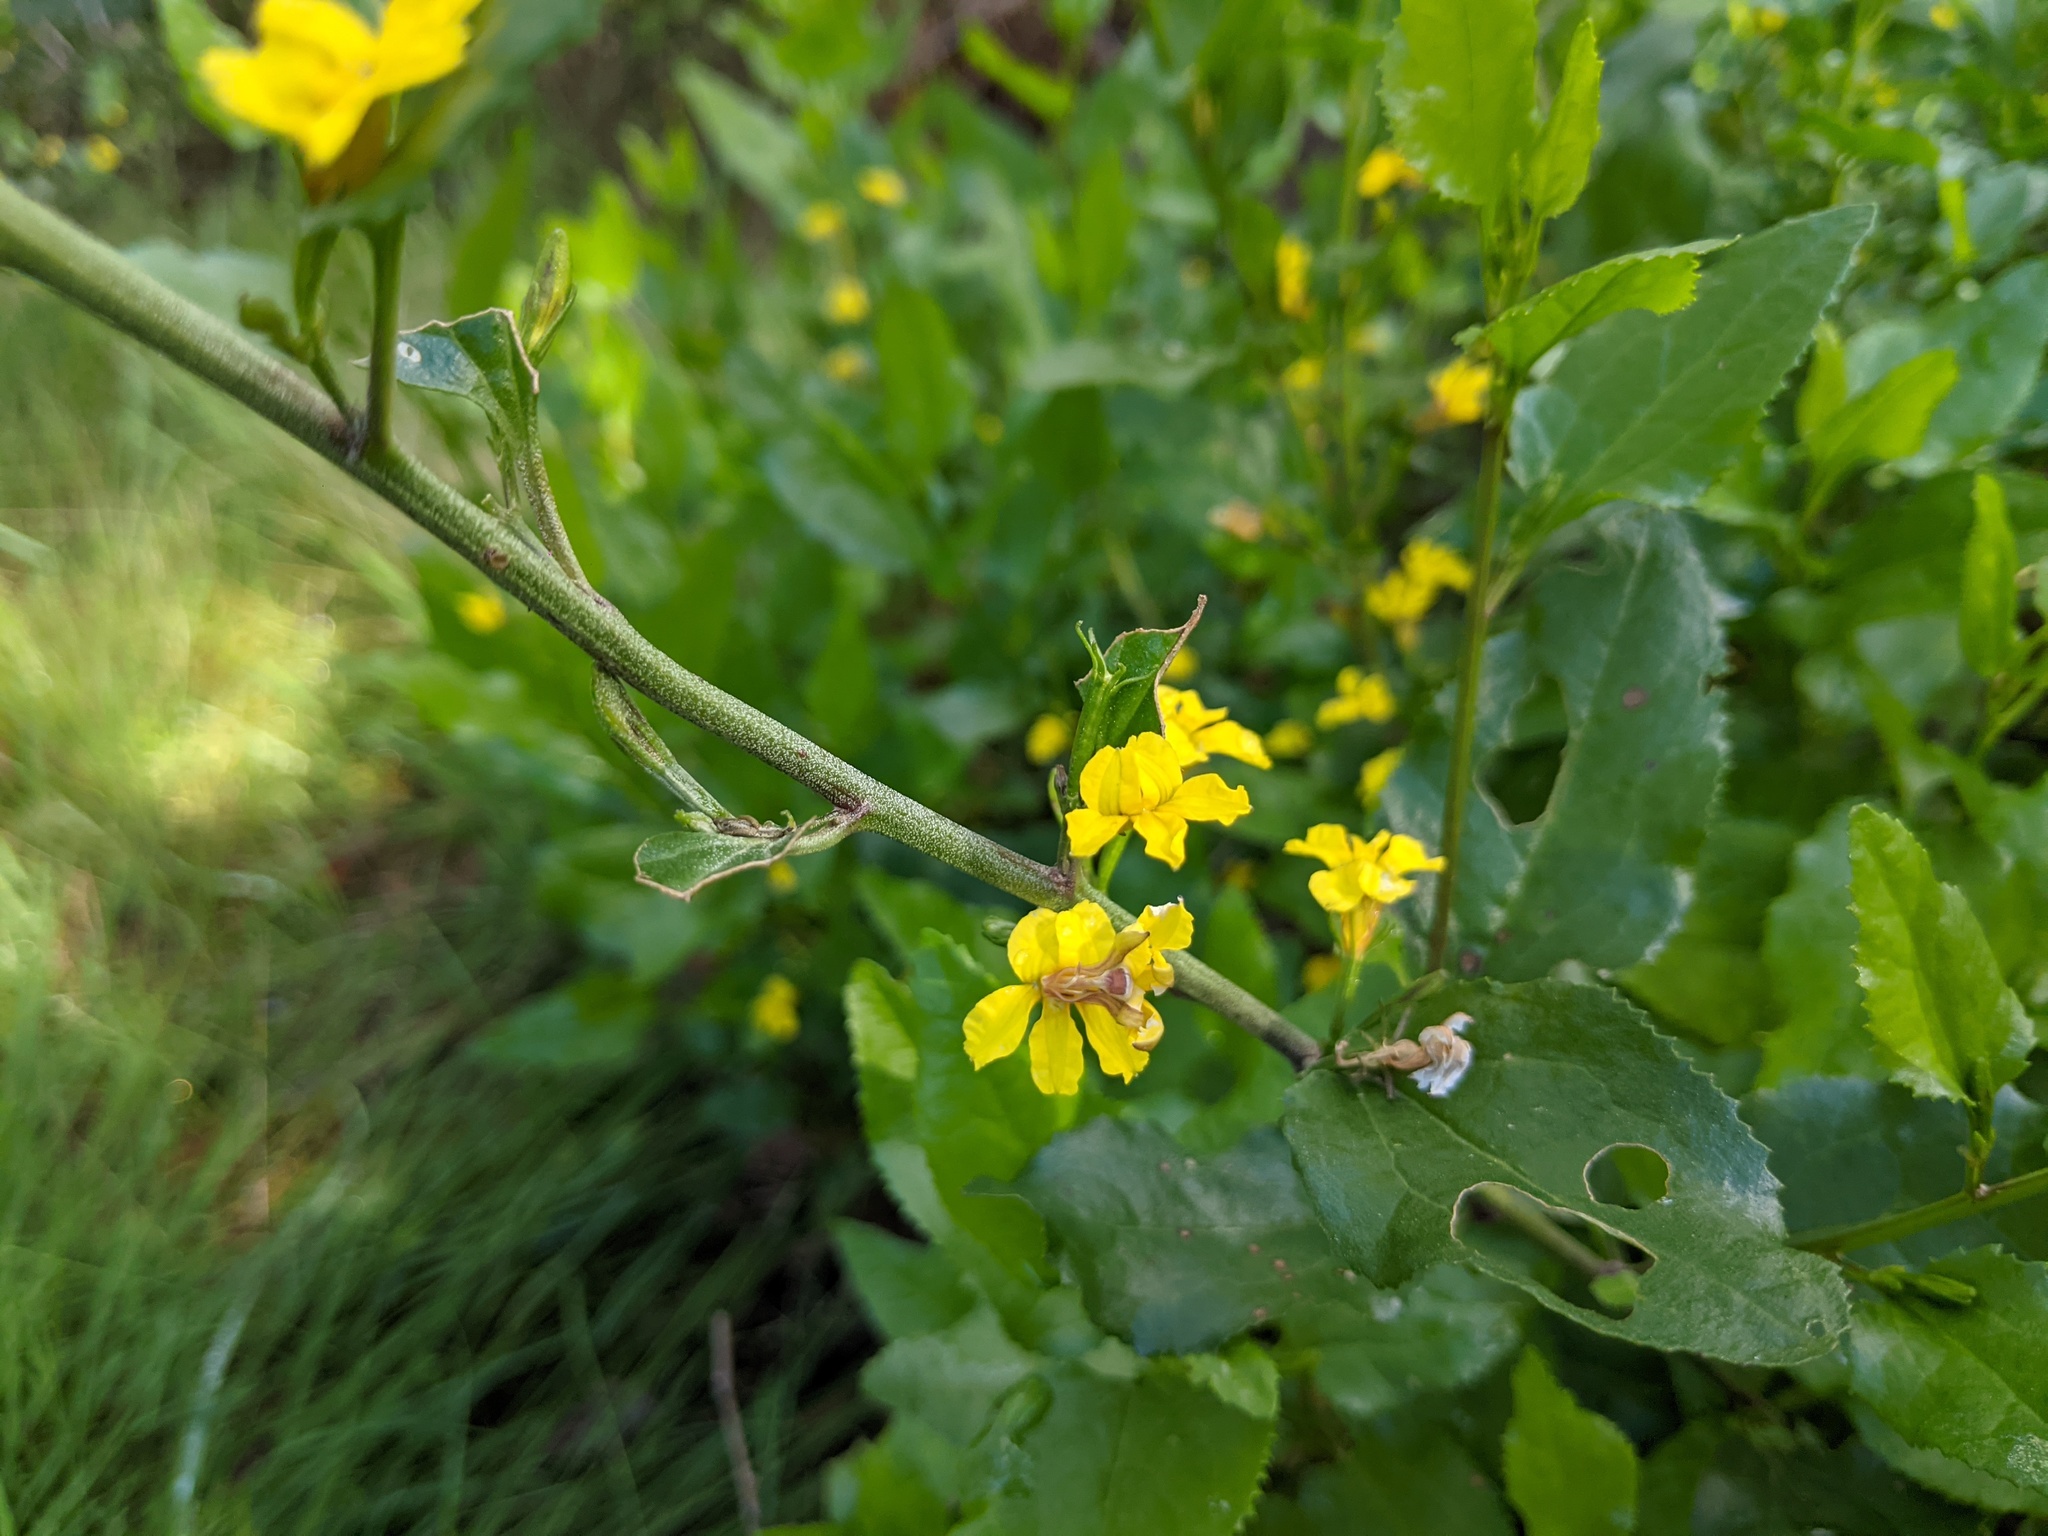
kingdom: Plantae
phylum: Tracheophyta
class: Magnoliopsida
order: Asterales
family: Goodeniaceae
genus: Goodenia
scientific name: Goodenia ovata
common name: Hop goodenia
